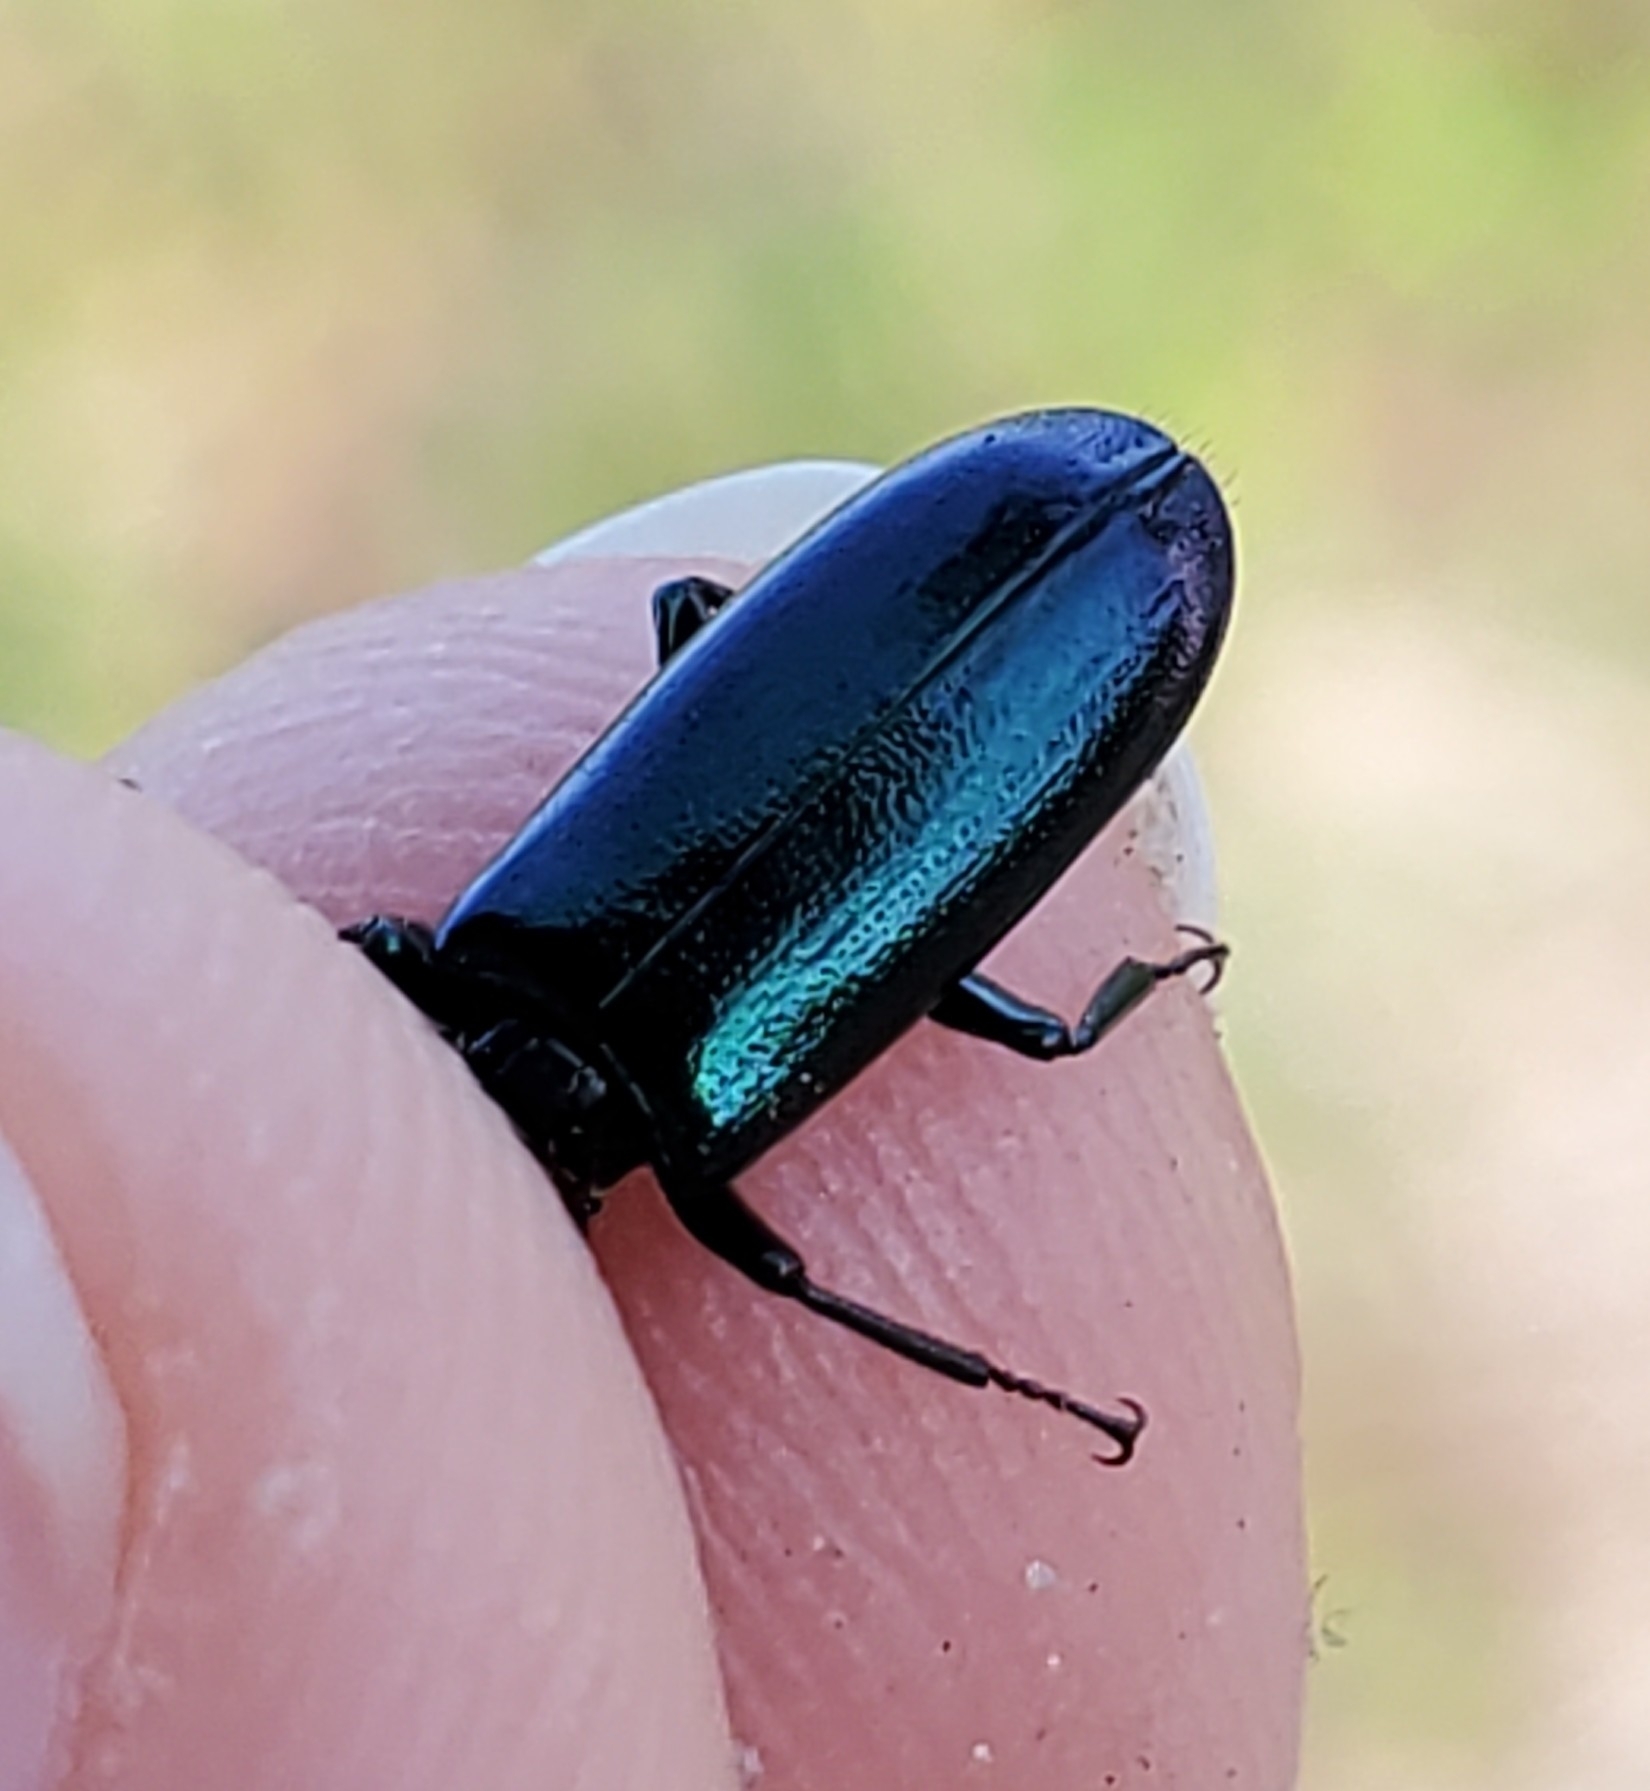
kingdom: Animalia
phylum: Arthropoda
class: Insecta
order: Coleoptera
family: Trogossitidae
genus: Temnochila
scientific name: Temnochila virescens
